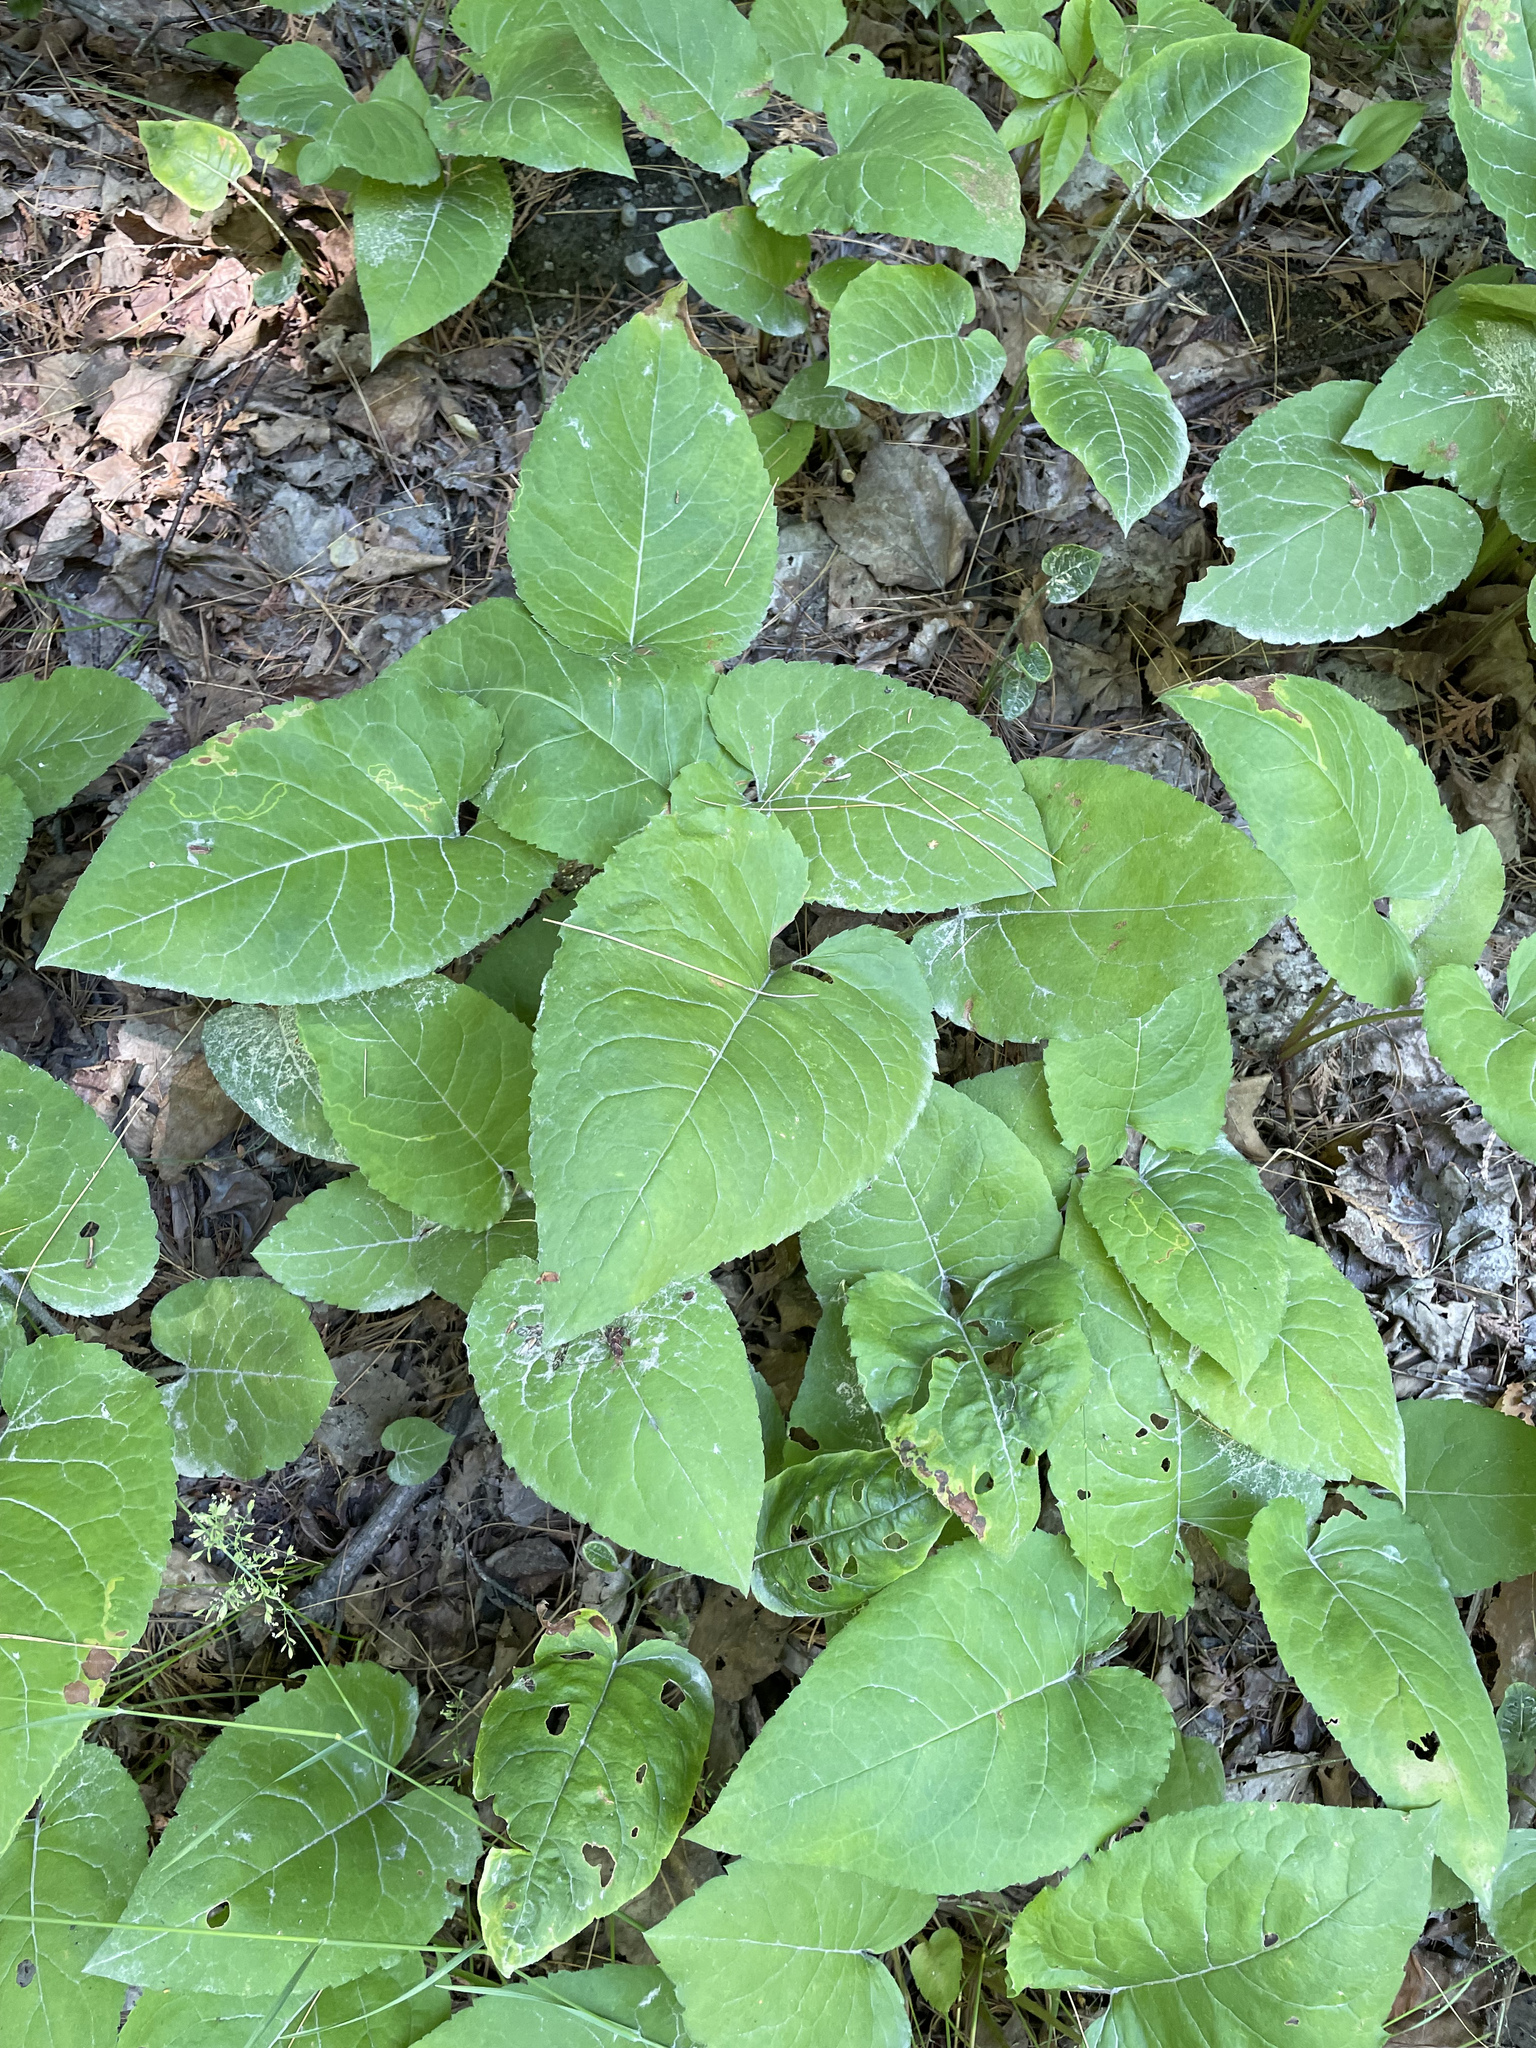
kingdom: Plantae
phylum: Tracheophyta
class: Magnoliopsida
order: Asterales
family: Asteraceae
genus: Eurybia
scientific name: Eurybia macrophylla
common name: Big-leaved aster
